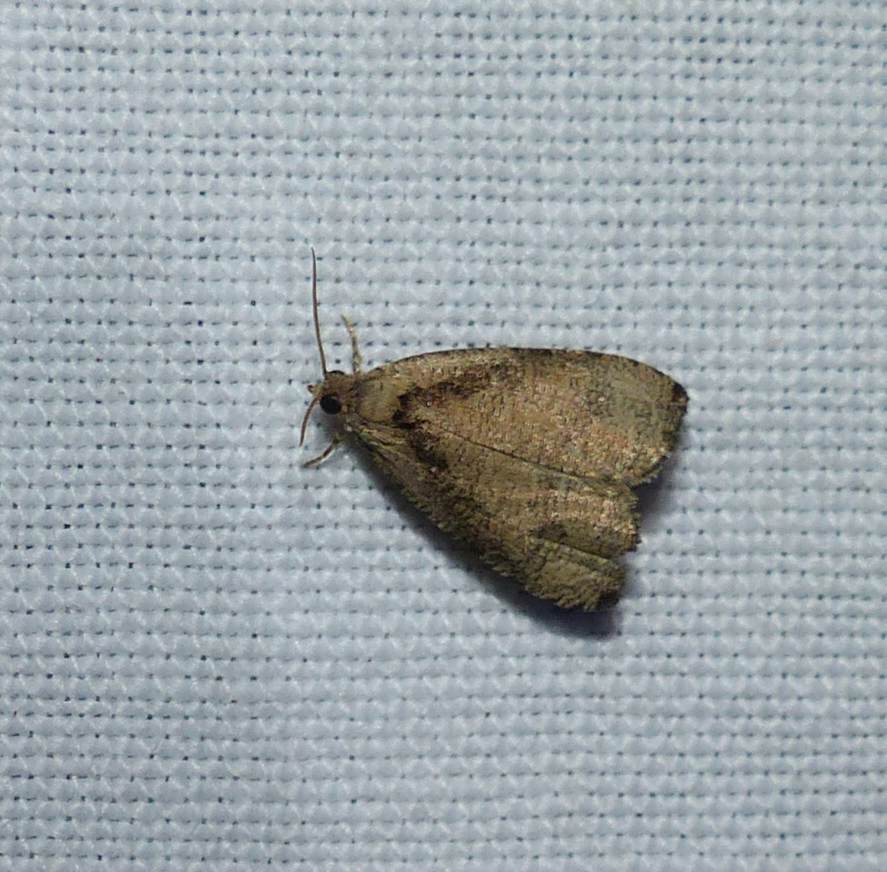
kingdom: Animalia
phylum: Arthropoda
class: Insecta
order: Lepidoptera
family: Tortricidae
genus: Olethreutes
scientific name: Olethreutes exoletum
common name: Wretched olethreutes moth
